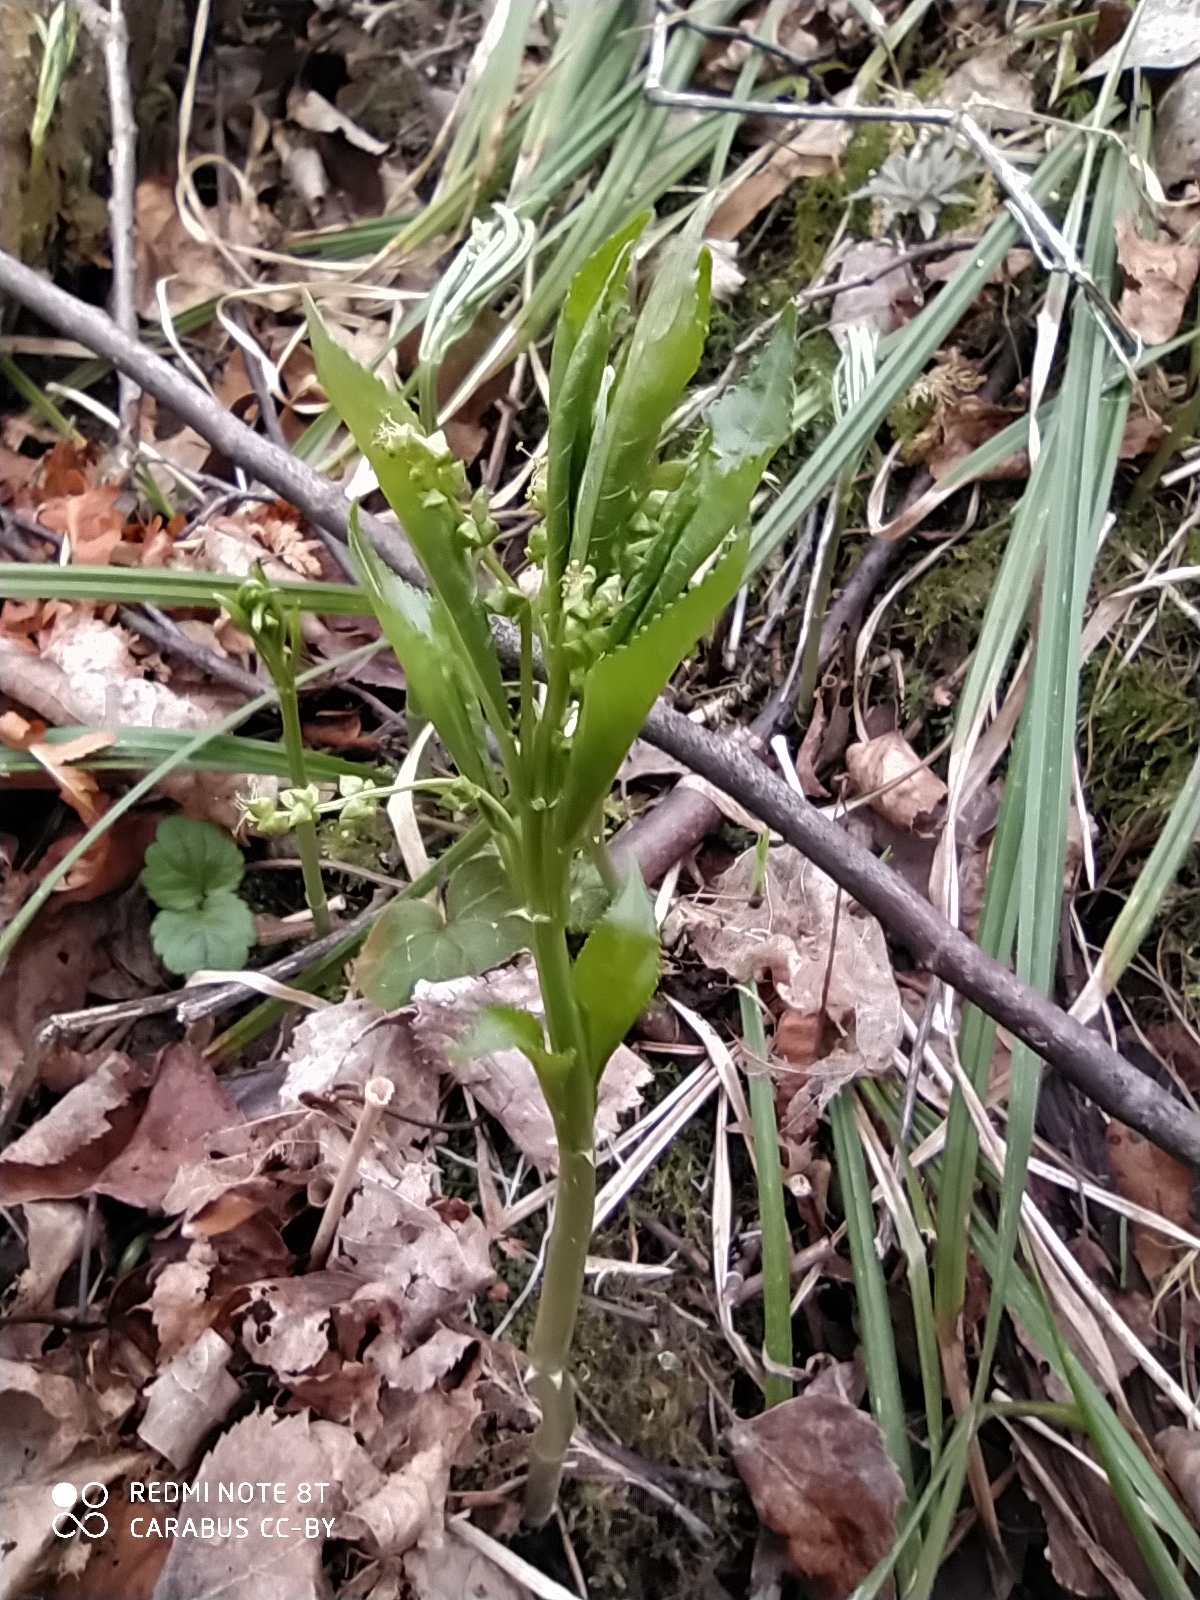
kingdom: Plantae
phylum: Tracheophyta
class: Magnoliopsida
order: Malpighiales
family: Euphorbiaceae
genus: Mercurialis
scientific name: Mercurialis perennis
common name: Dog mercury
